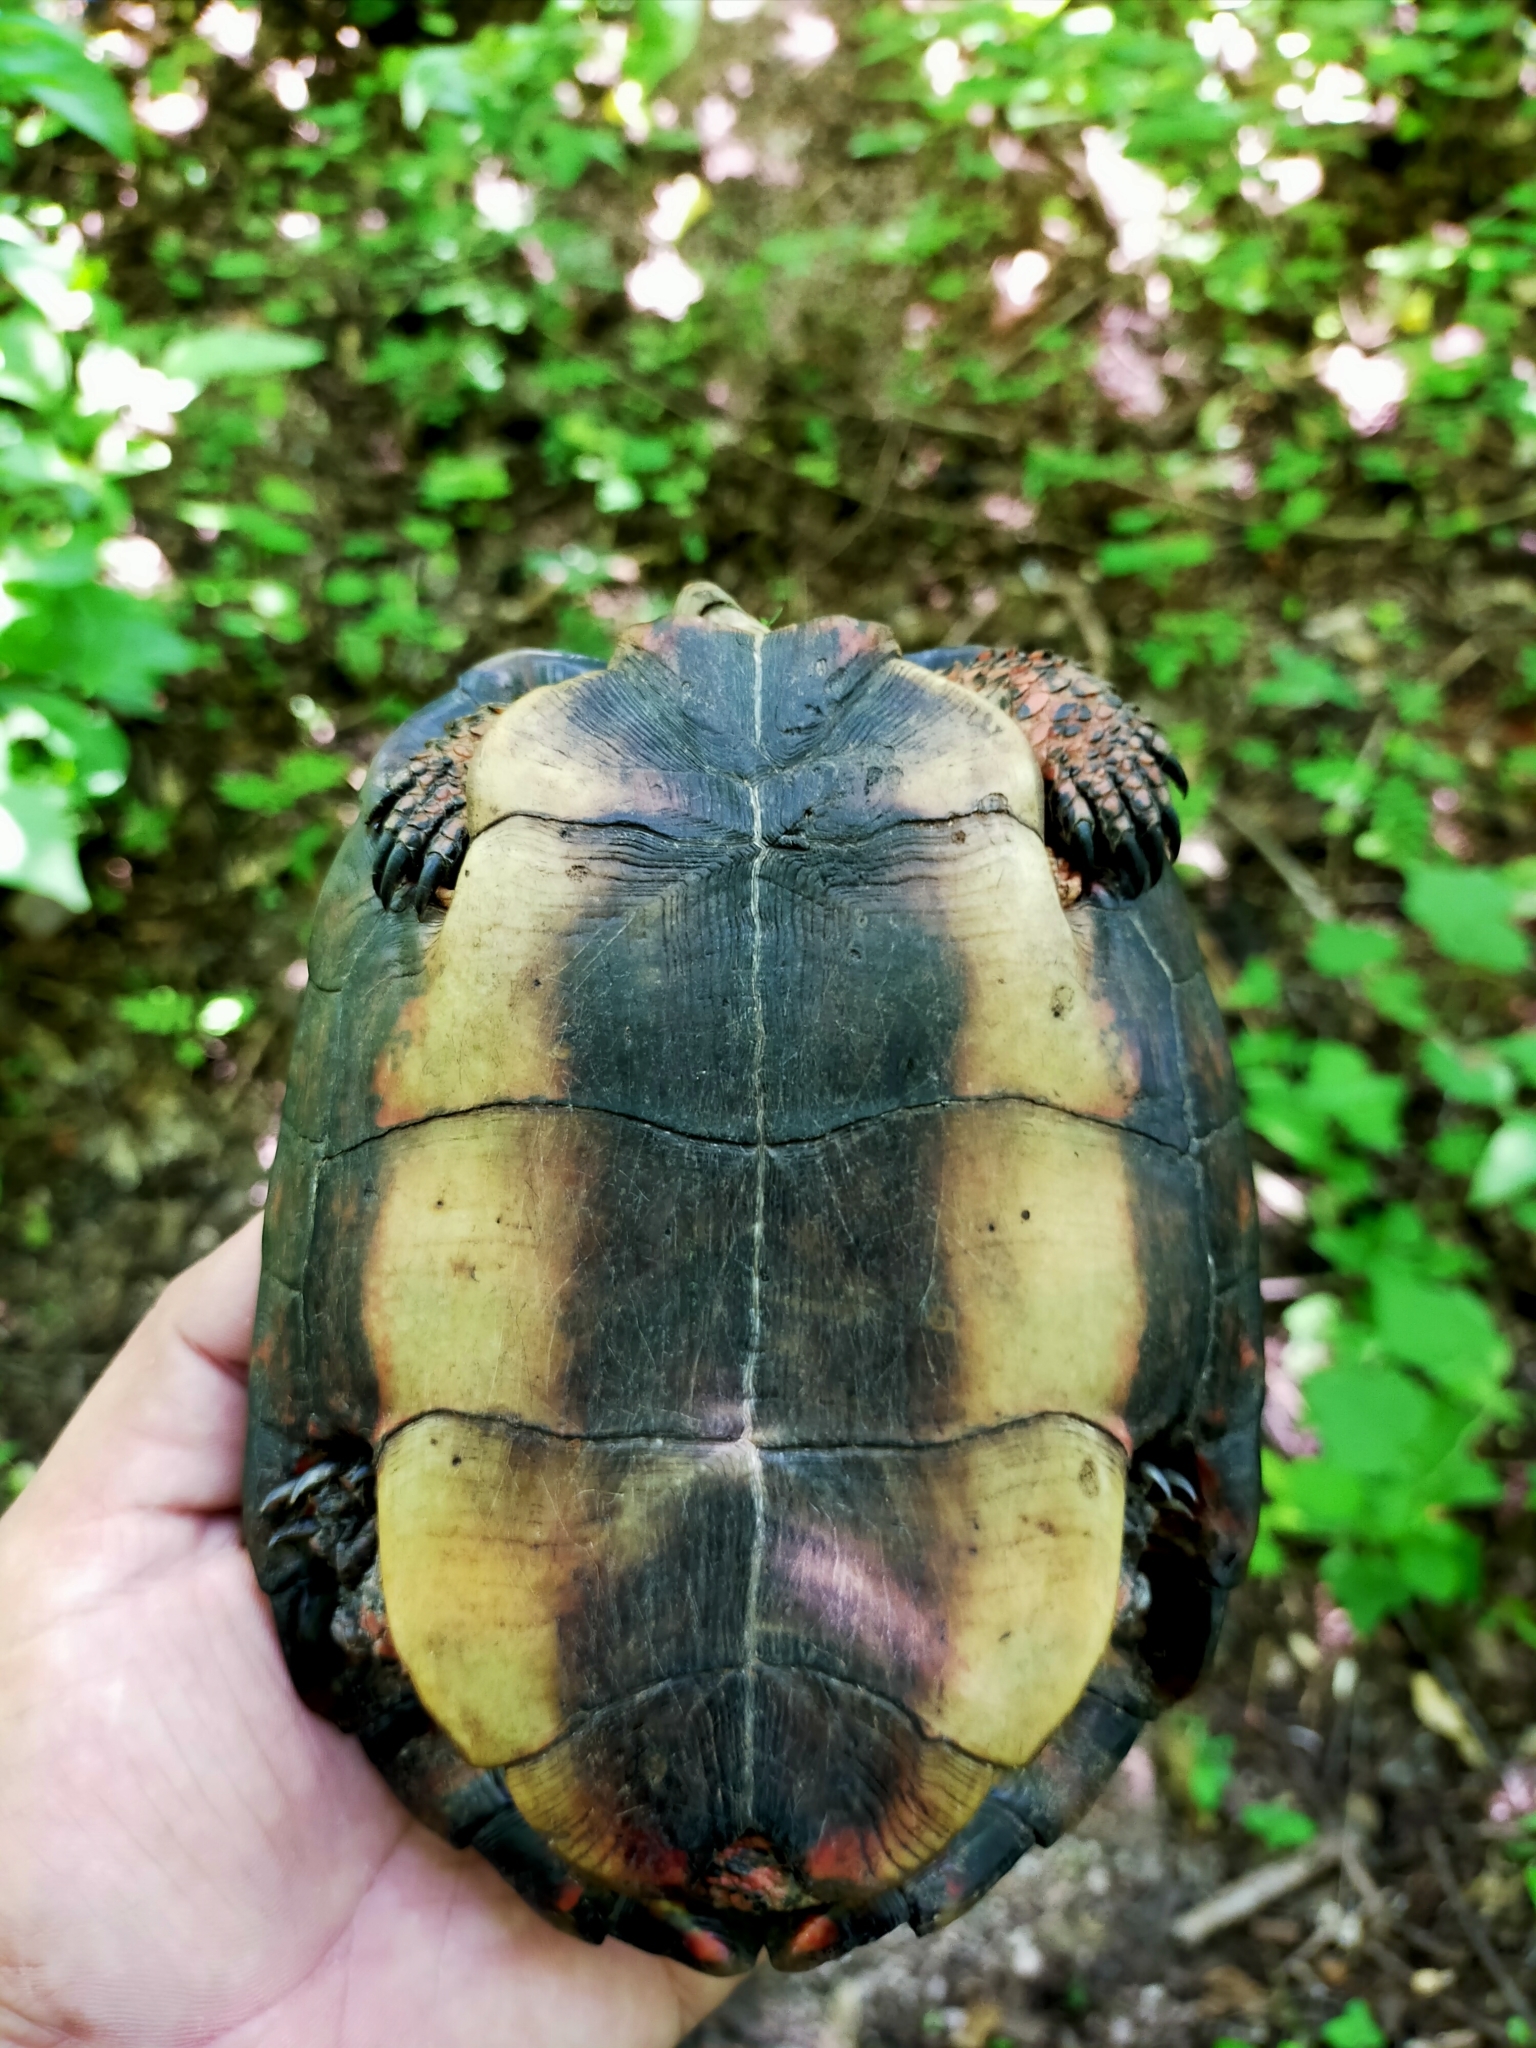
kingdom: Animalia
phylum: Chordata
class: Testudines
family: Geoemydidae
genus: Rhinoclemmys
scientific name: Rhinoclemmys pulcherrima
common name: Painted wood turtle
